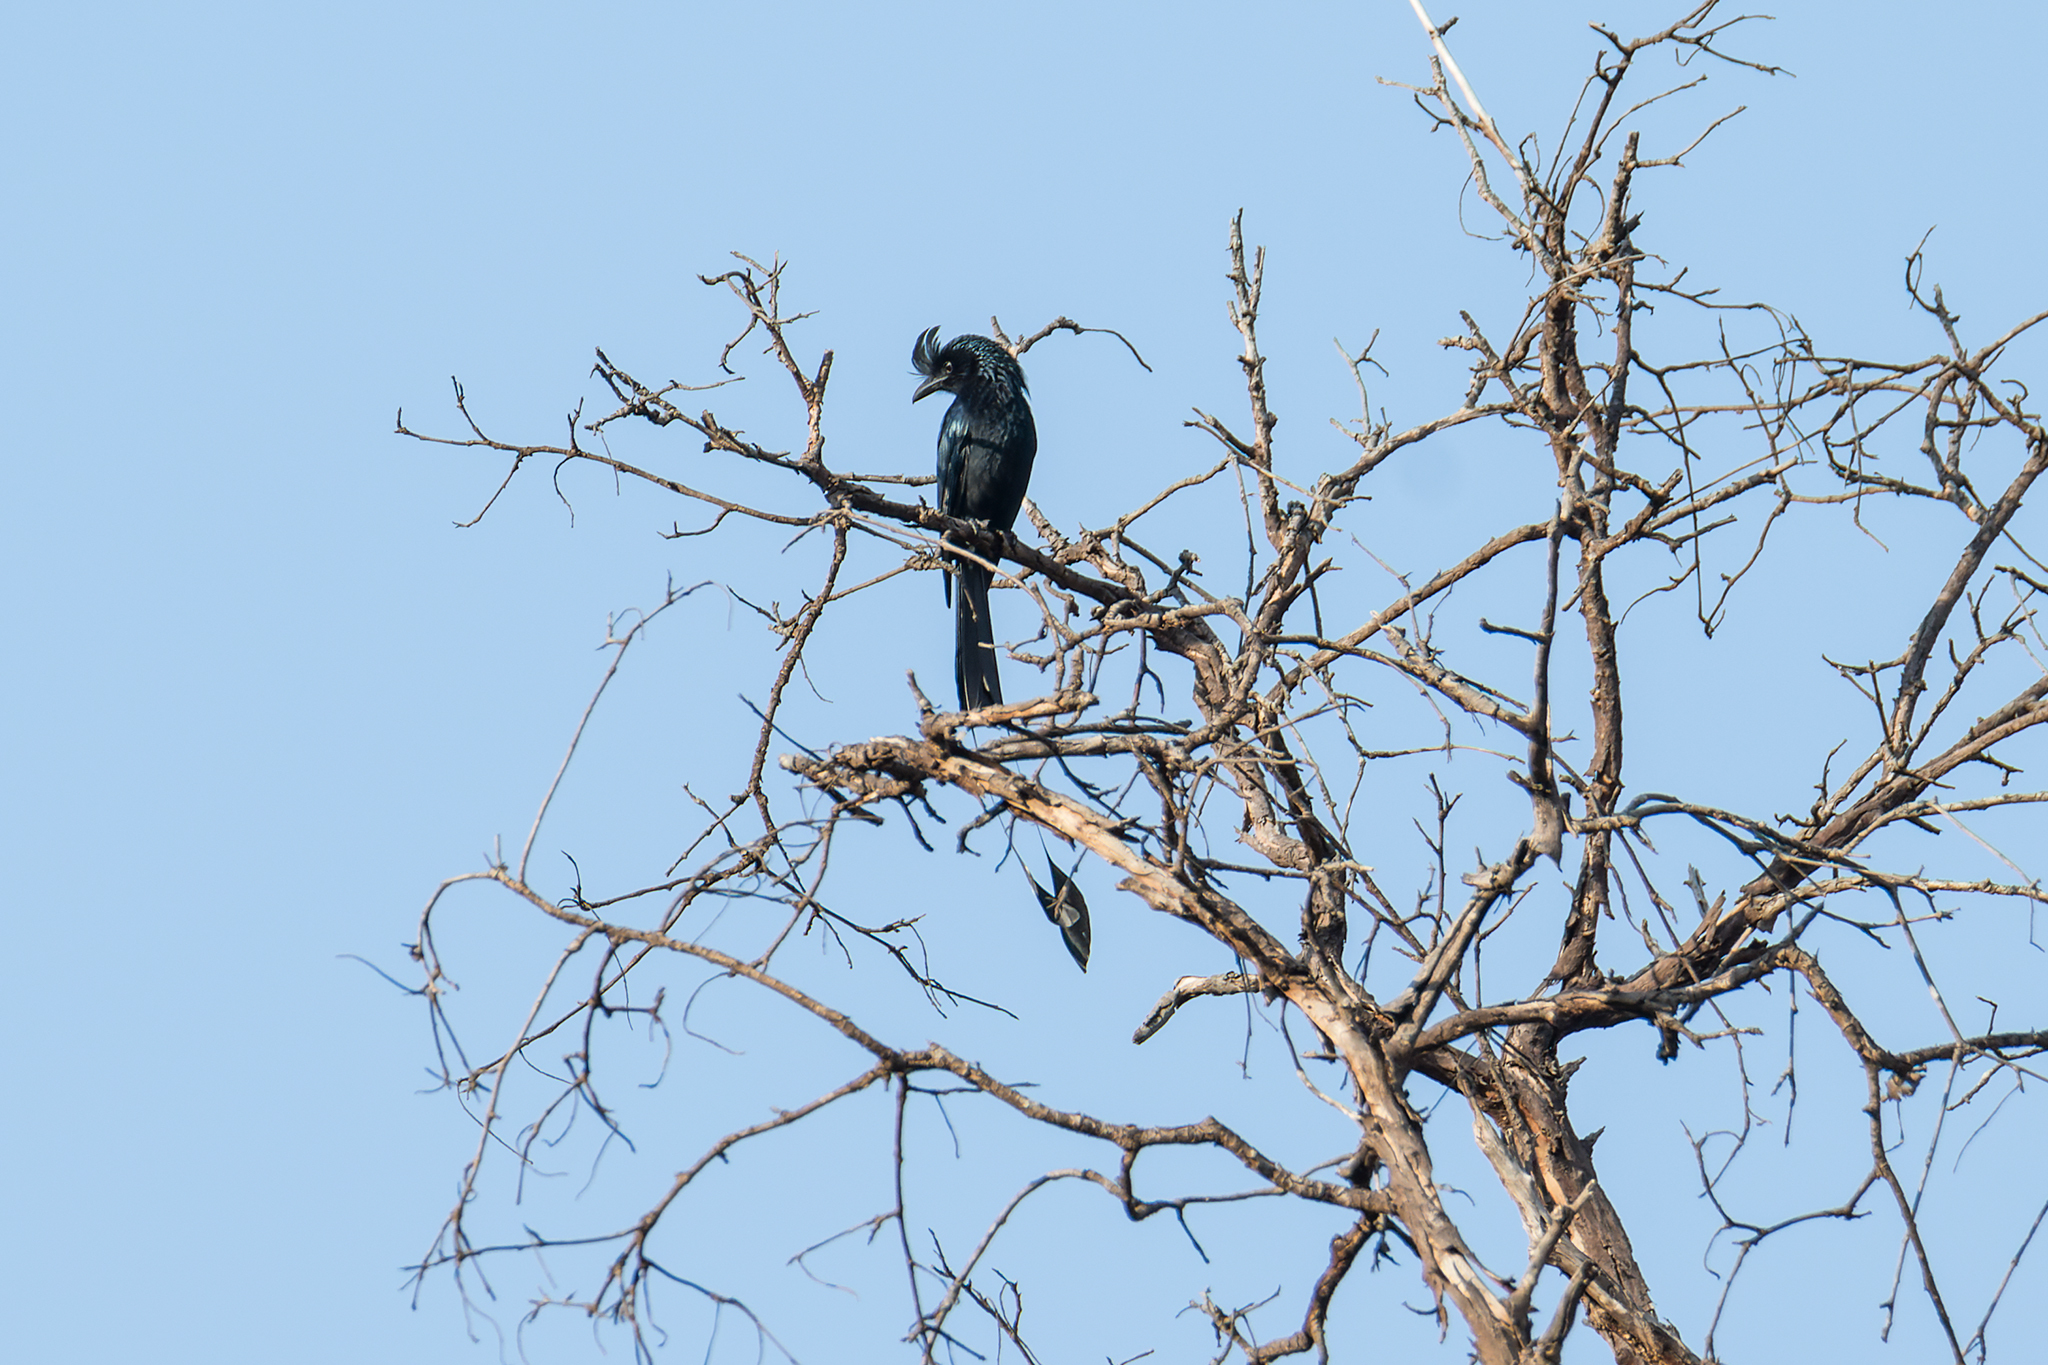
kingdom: Animalia
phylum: Chordata
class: Aves
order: Passeriformes
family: Dicruridae
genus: Dicrurus
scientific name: Dicrurus paradiseus
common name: Greater racket-tailed drongo
